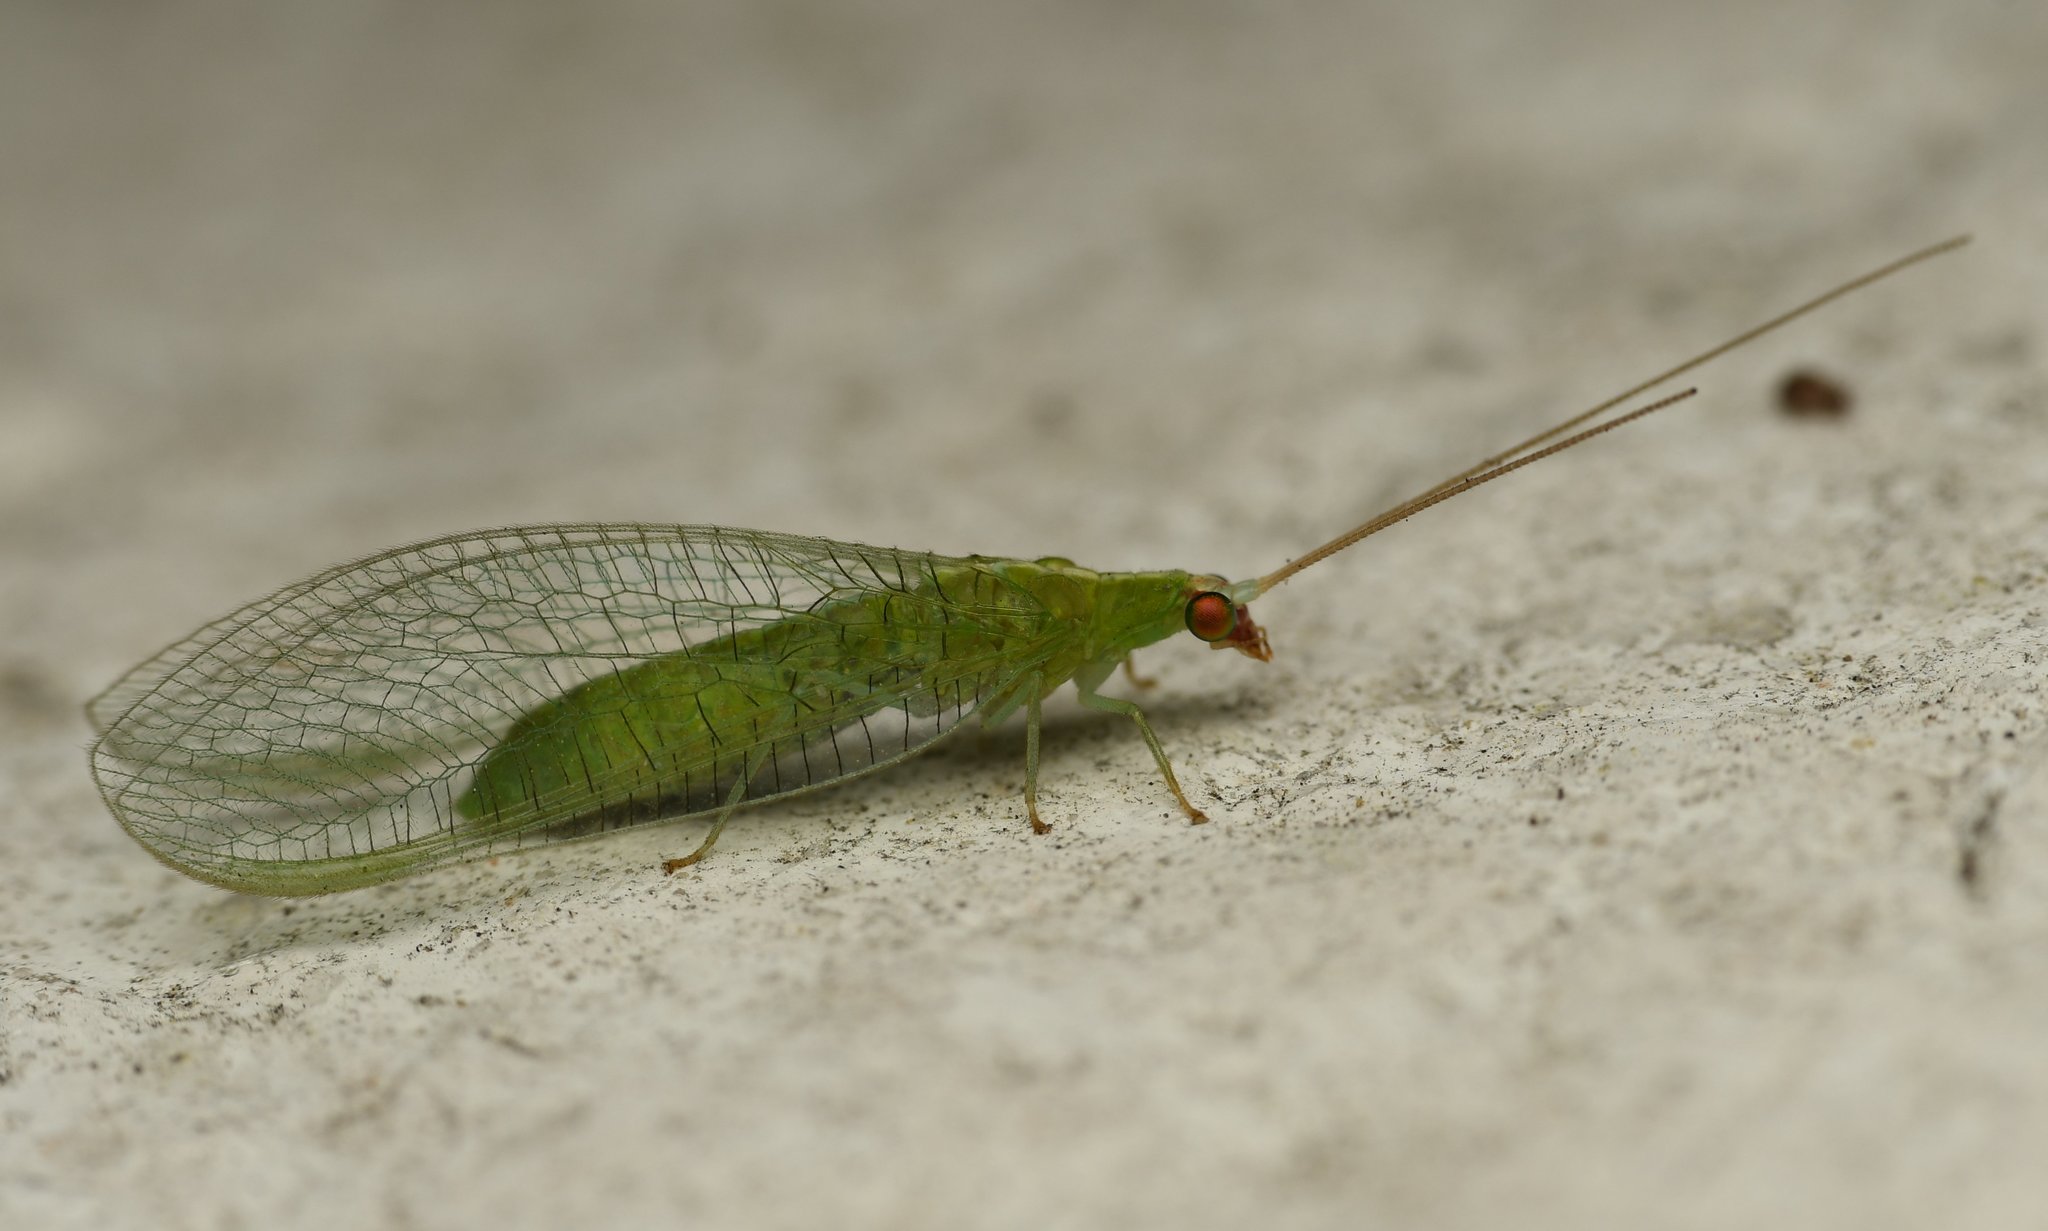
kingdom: Animalia
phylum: Arthropoda
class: Insecta
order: Neuroptera
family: Chrysopidae
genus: Chrysopodes
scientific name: Chrysopodes collaris
